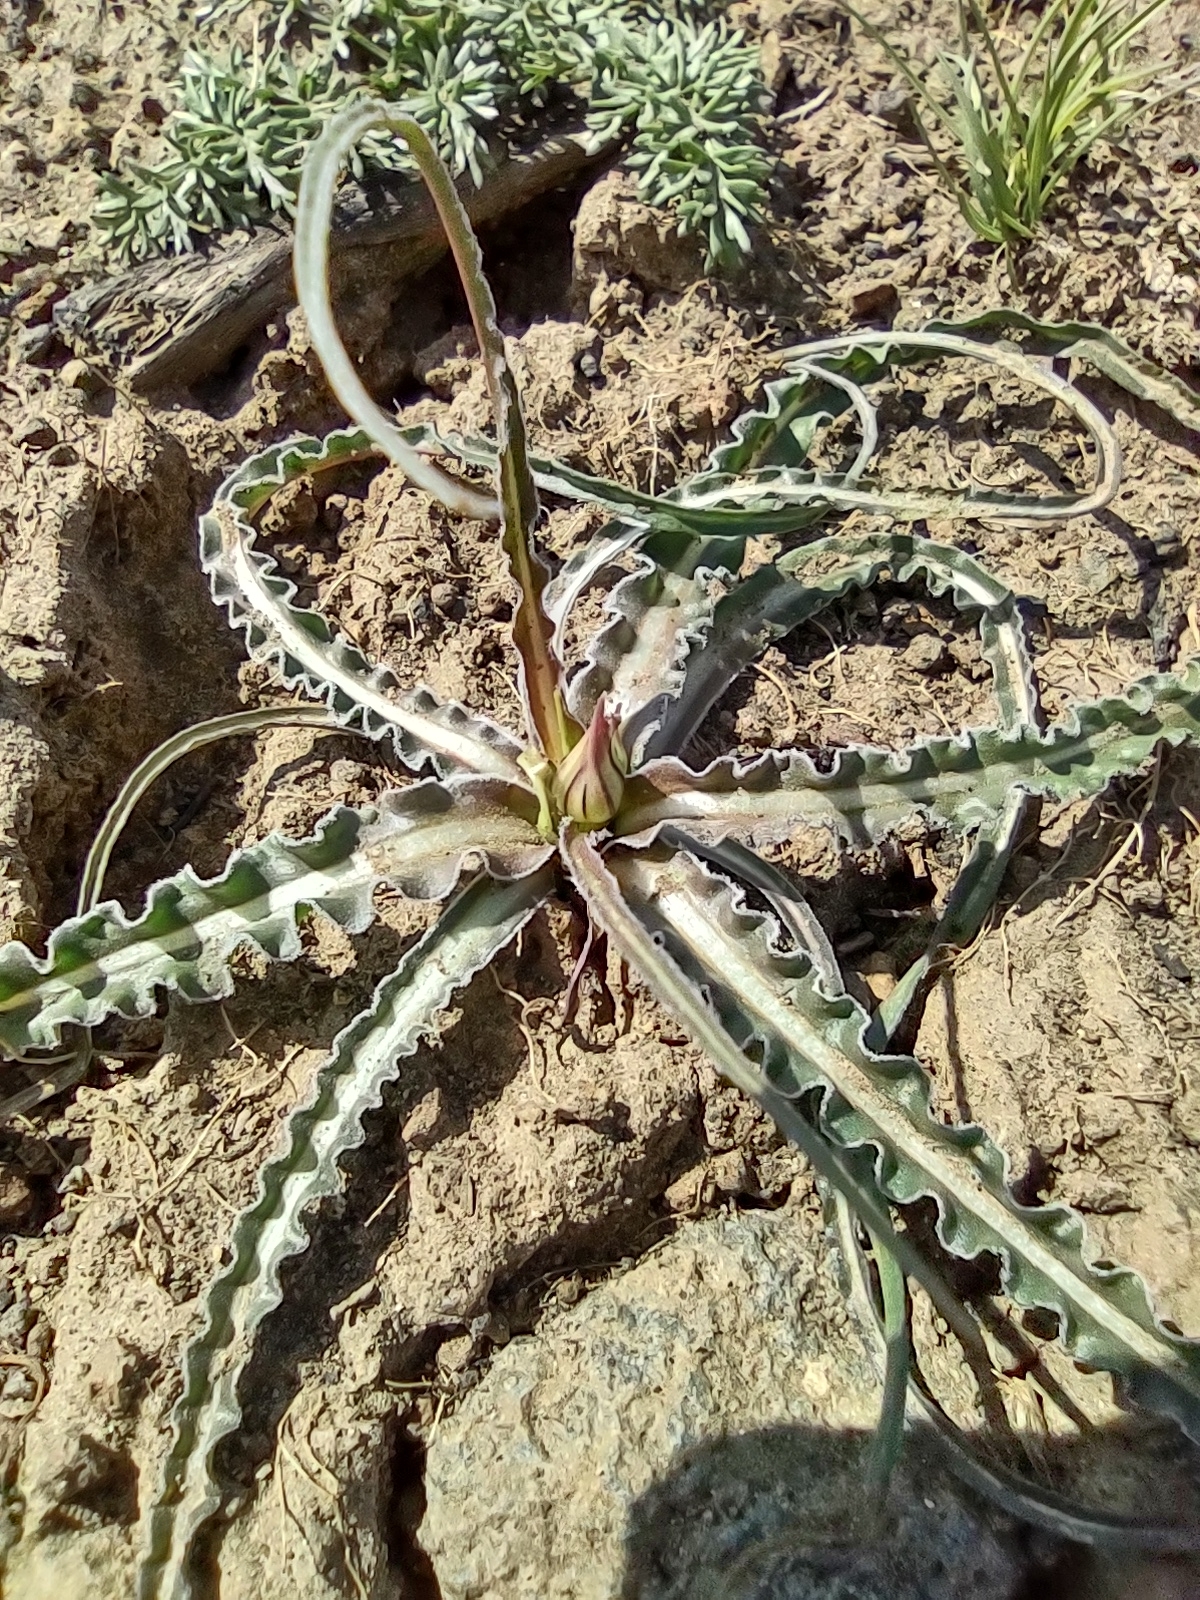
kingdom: Plantae
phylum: Tracheophyta
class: Magnoliopsida
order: Asterales
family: Asteraceae
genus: Microseris
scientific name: Microseris troximoides
